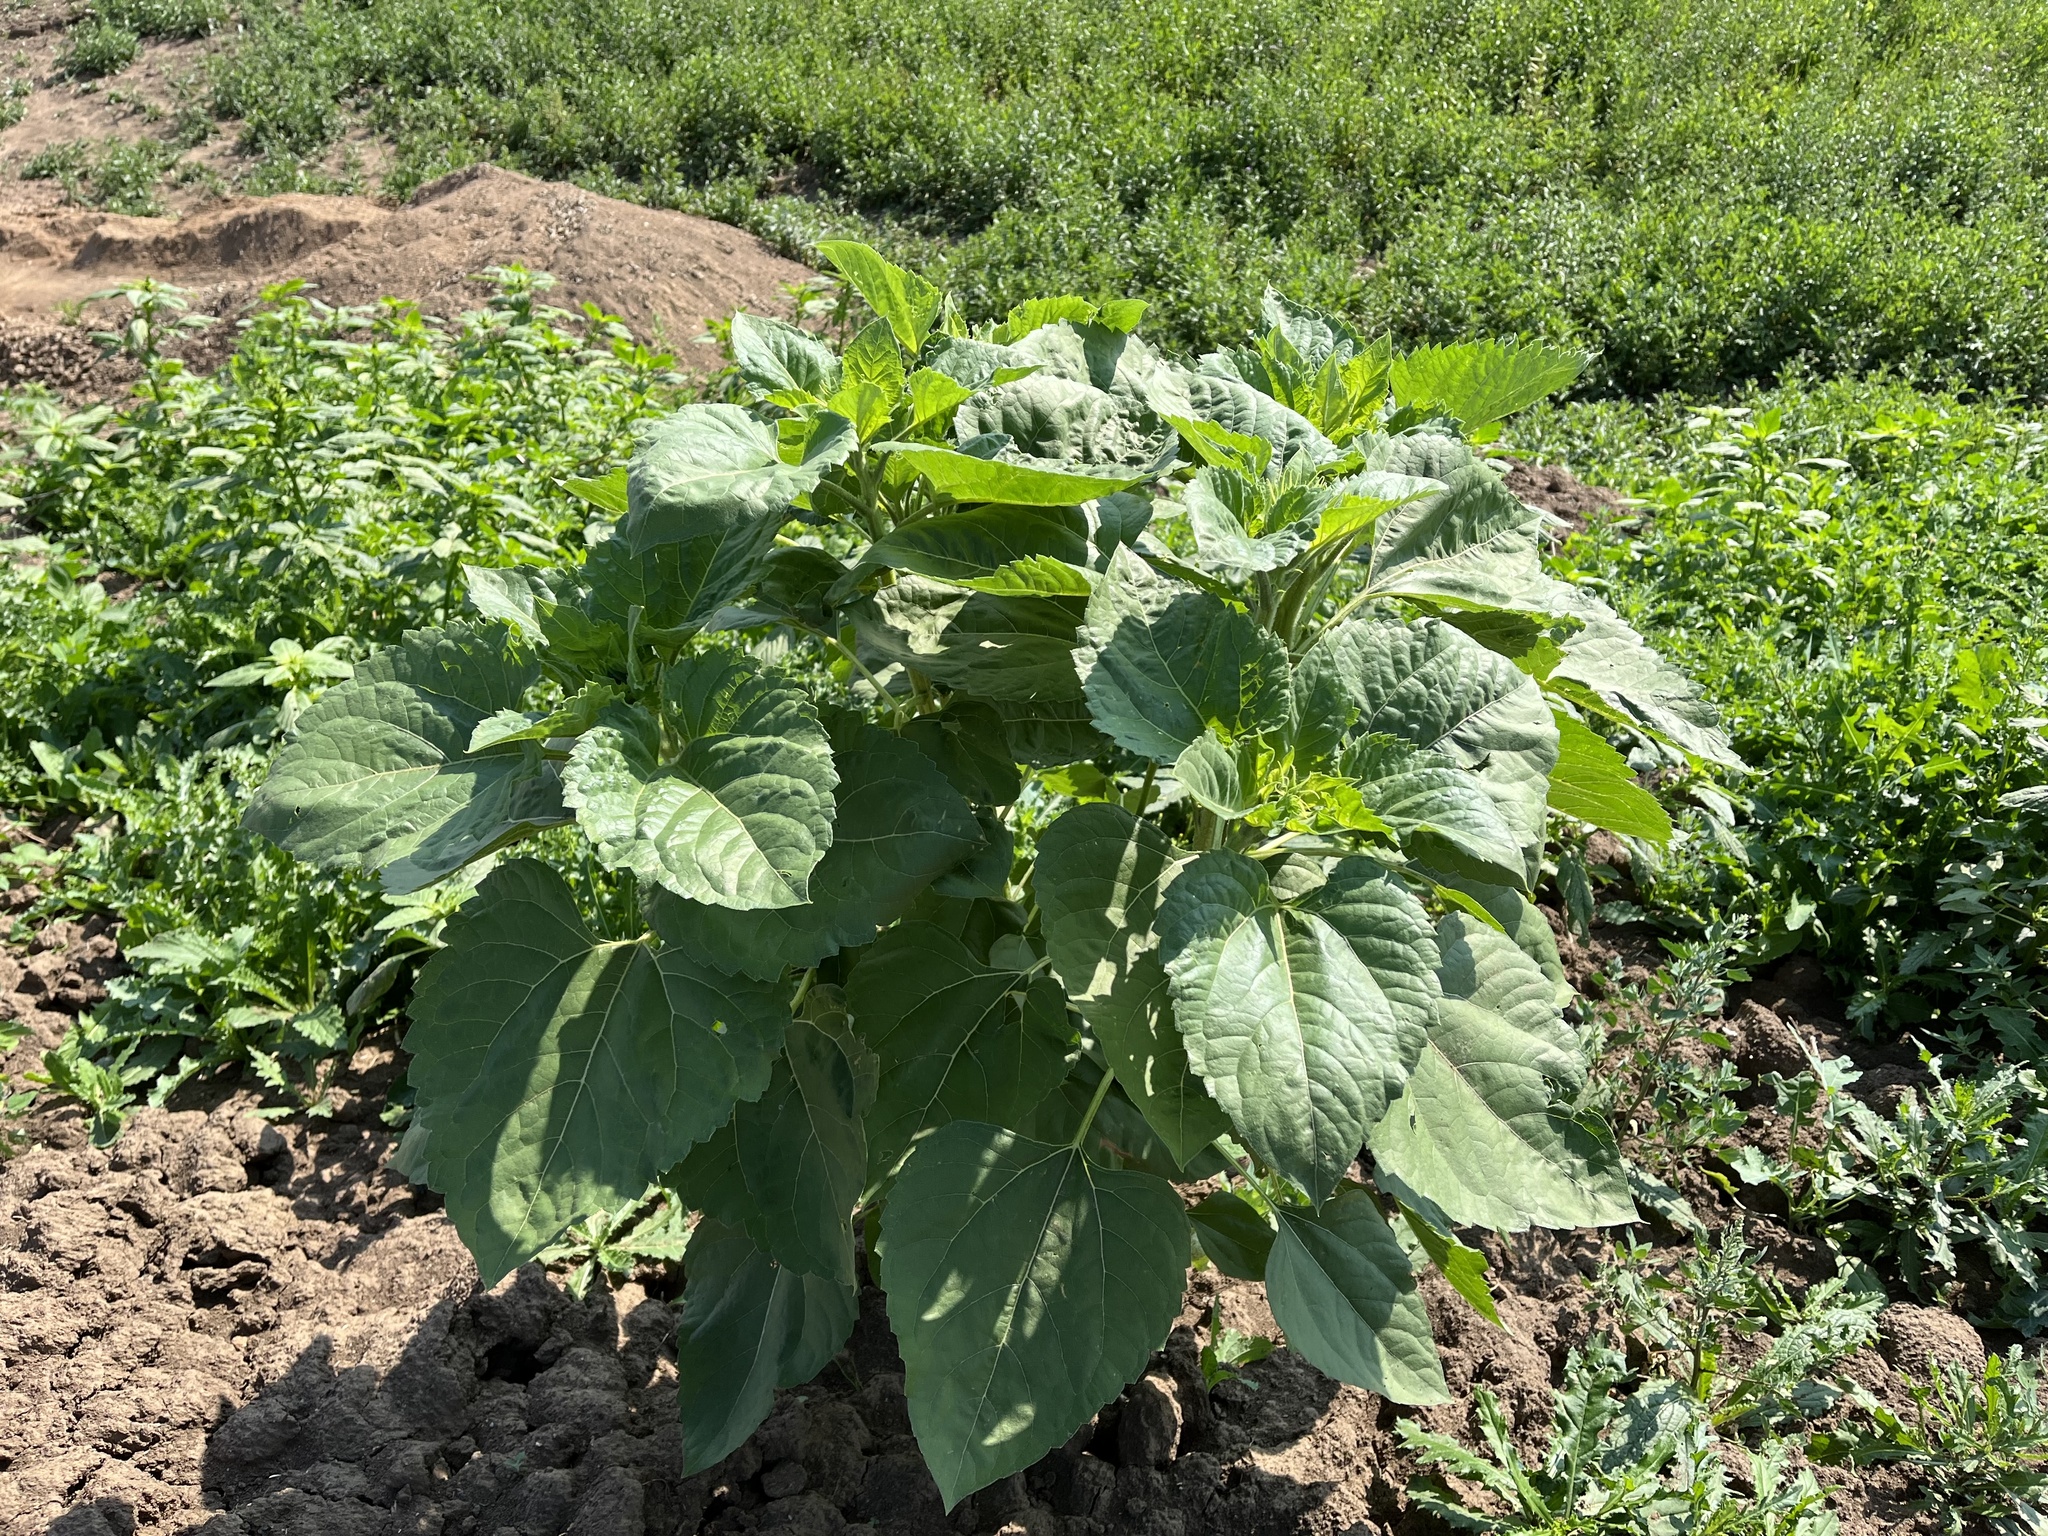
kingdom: Plantae
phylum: Tracheophyta
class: Magnoliopsida
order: Asterales
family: Asteraceae
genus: Helianthus
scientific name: Helianthus annuus
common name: Sunflower
